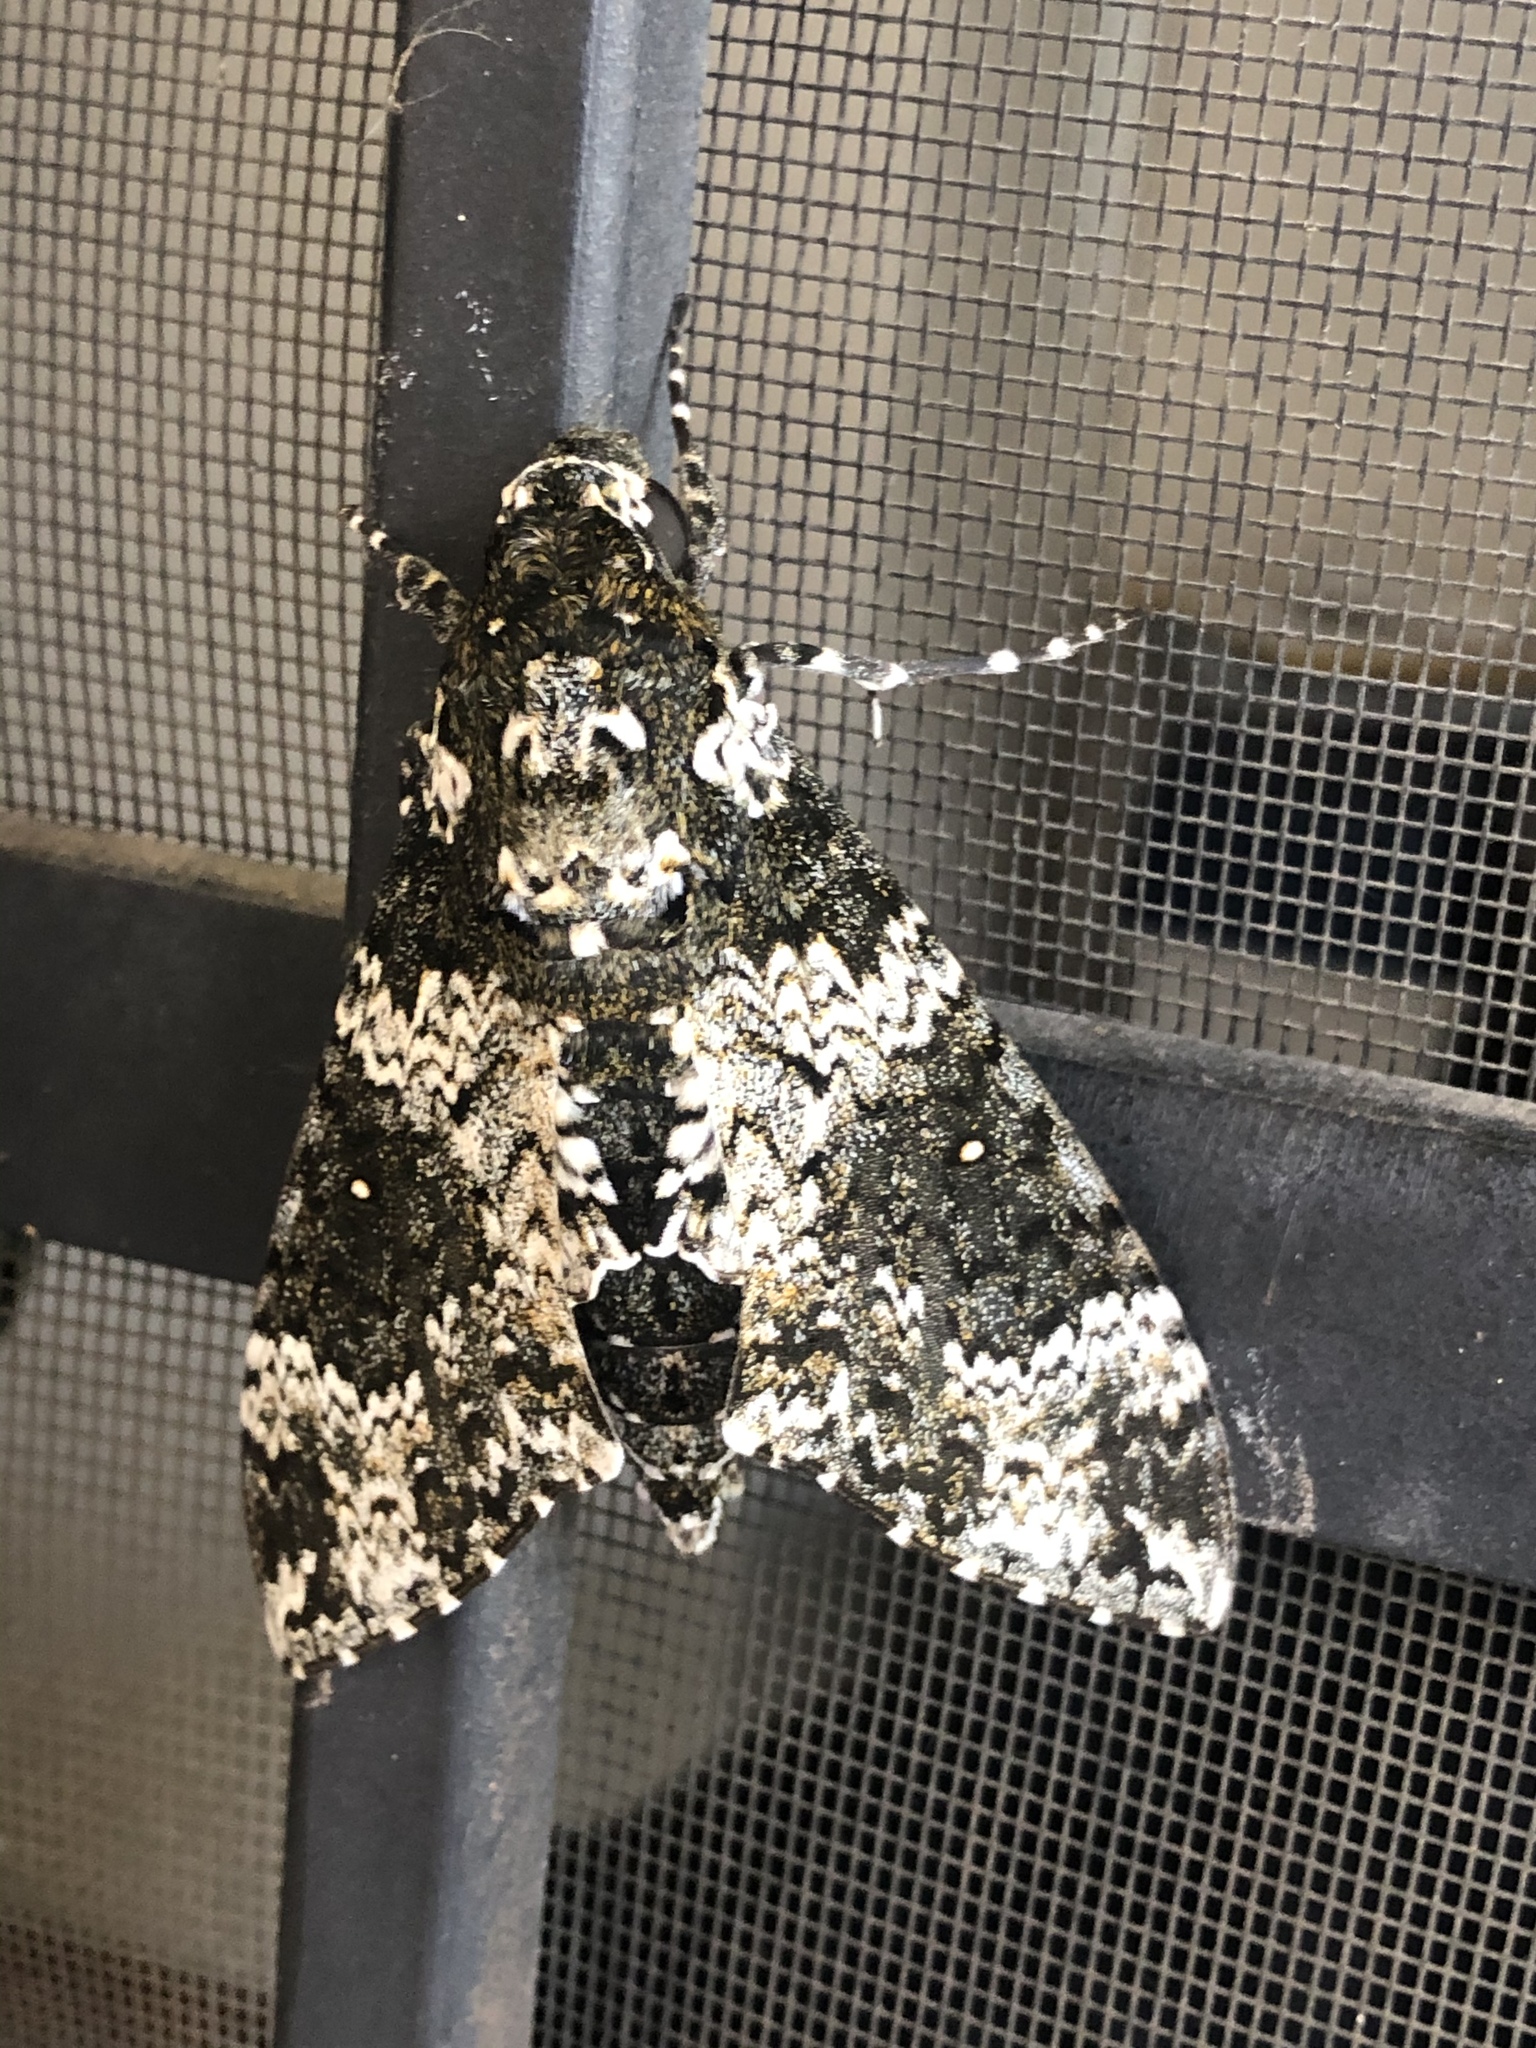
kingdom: Animalia
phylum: Arthropoda
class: Insecta
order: Lepidoptera
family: Sphingidae
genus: Manduca
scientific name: Manduca rustica
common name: Rustic sphinx
